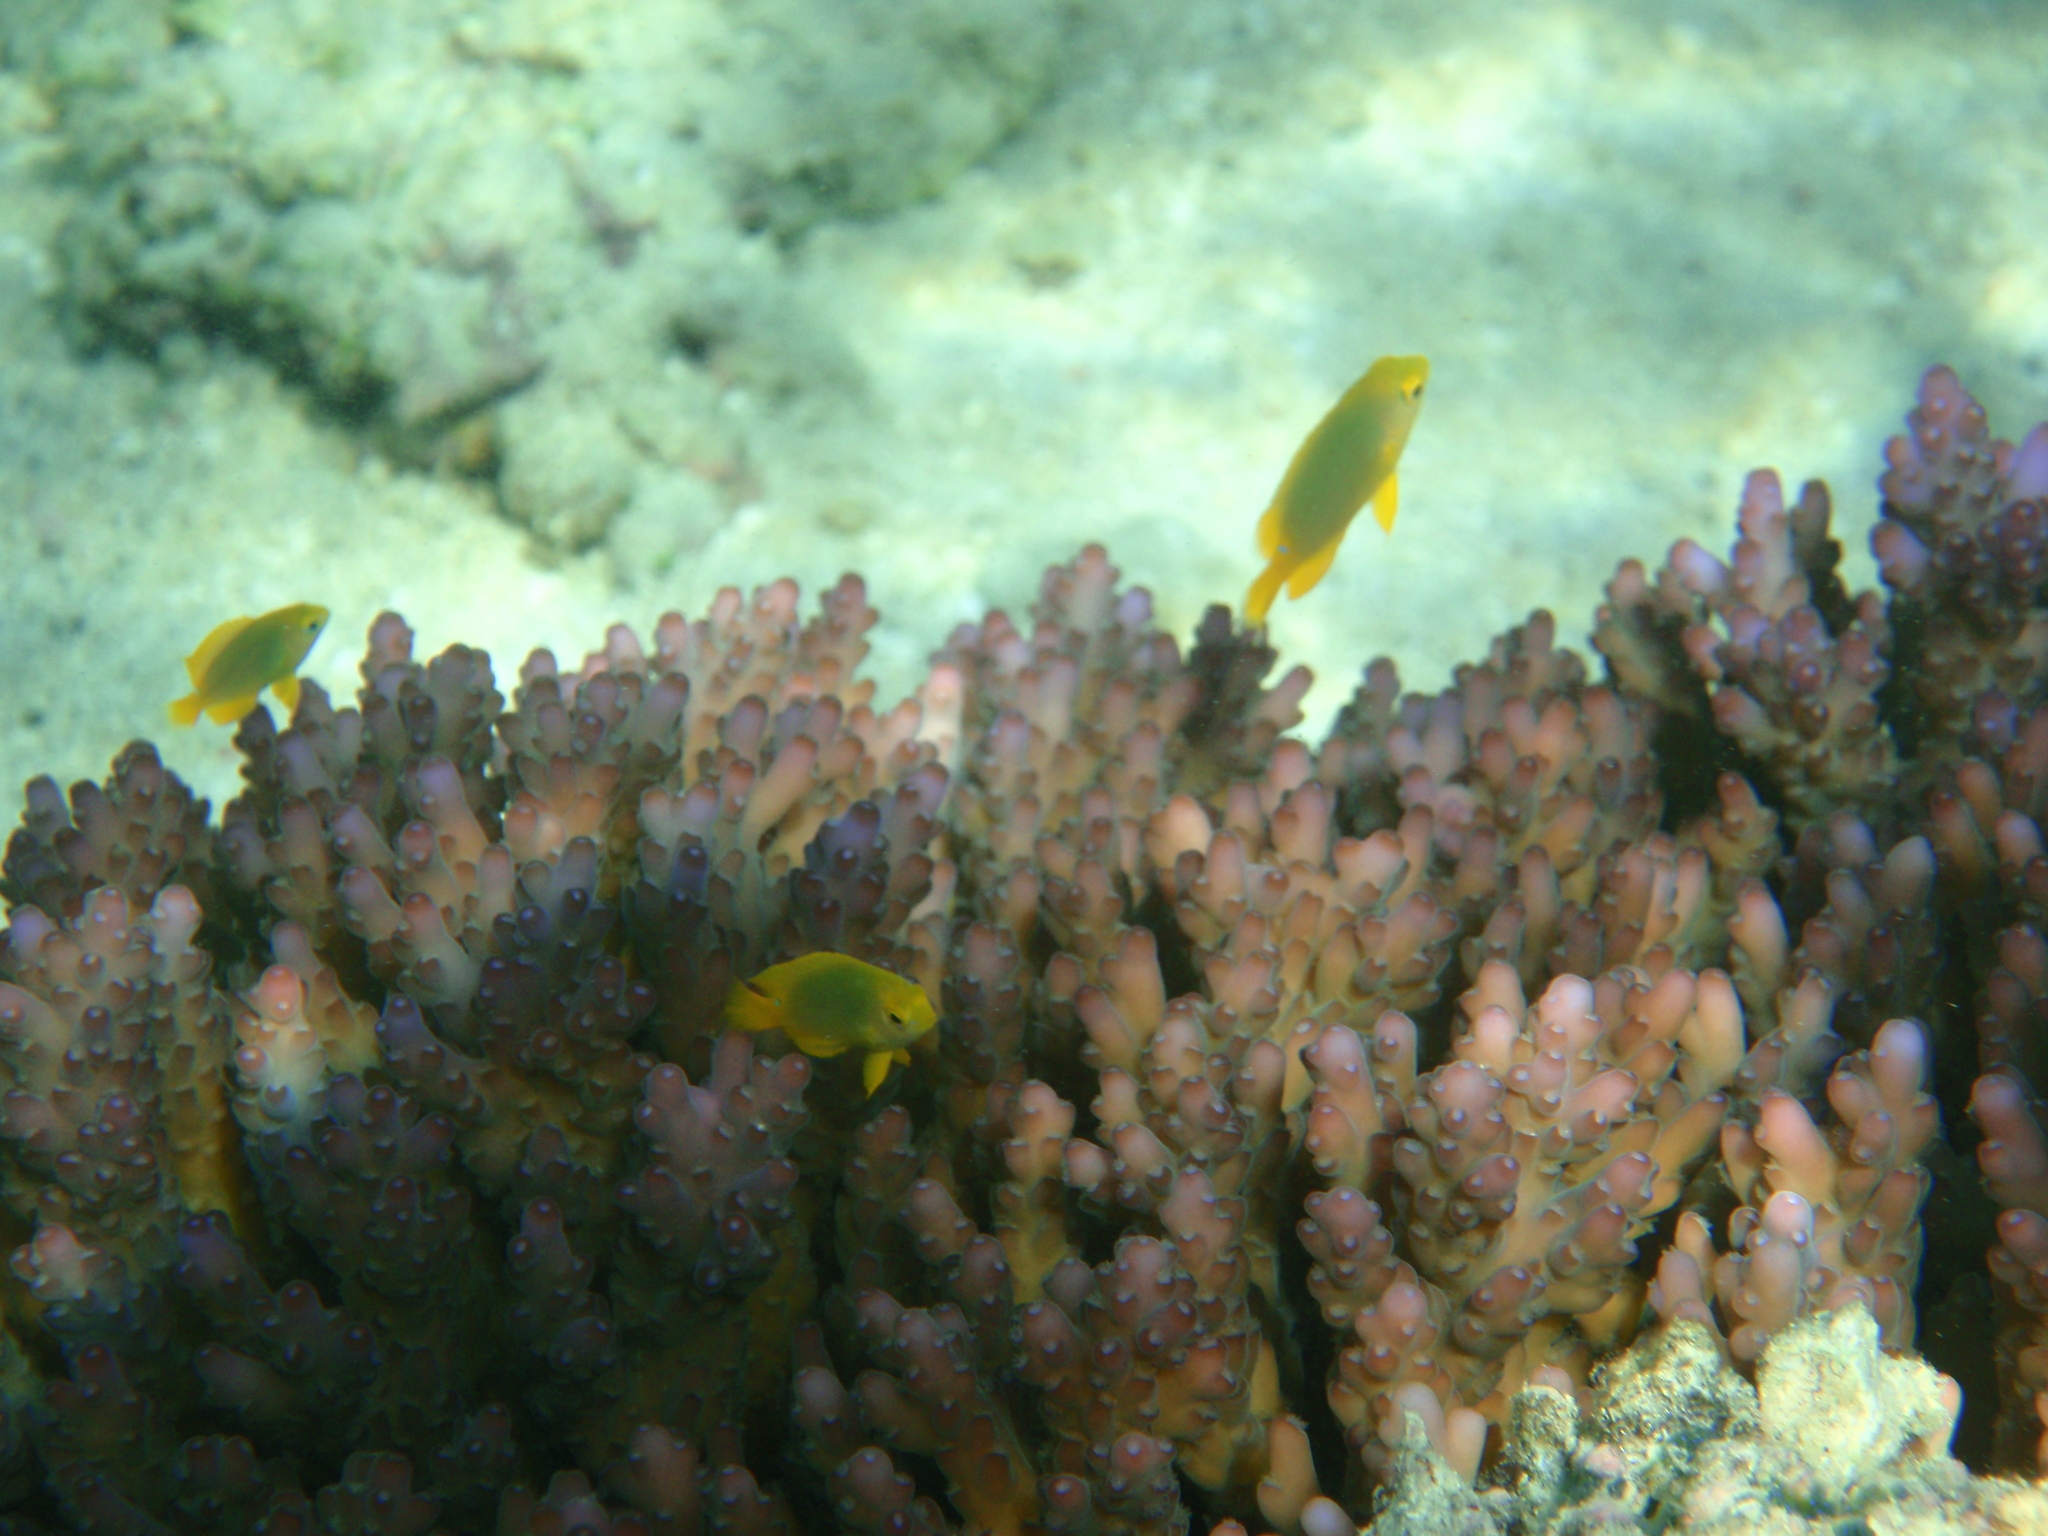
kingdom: Animalia
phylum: Chordata
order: Perciformes
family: Pomacentridae
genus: Pomacentrus
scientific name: Pomacentrus maafu
